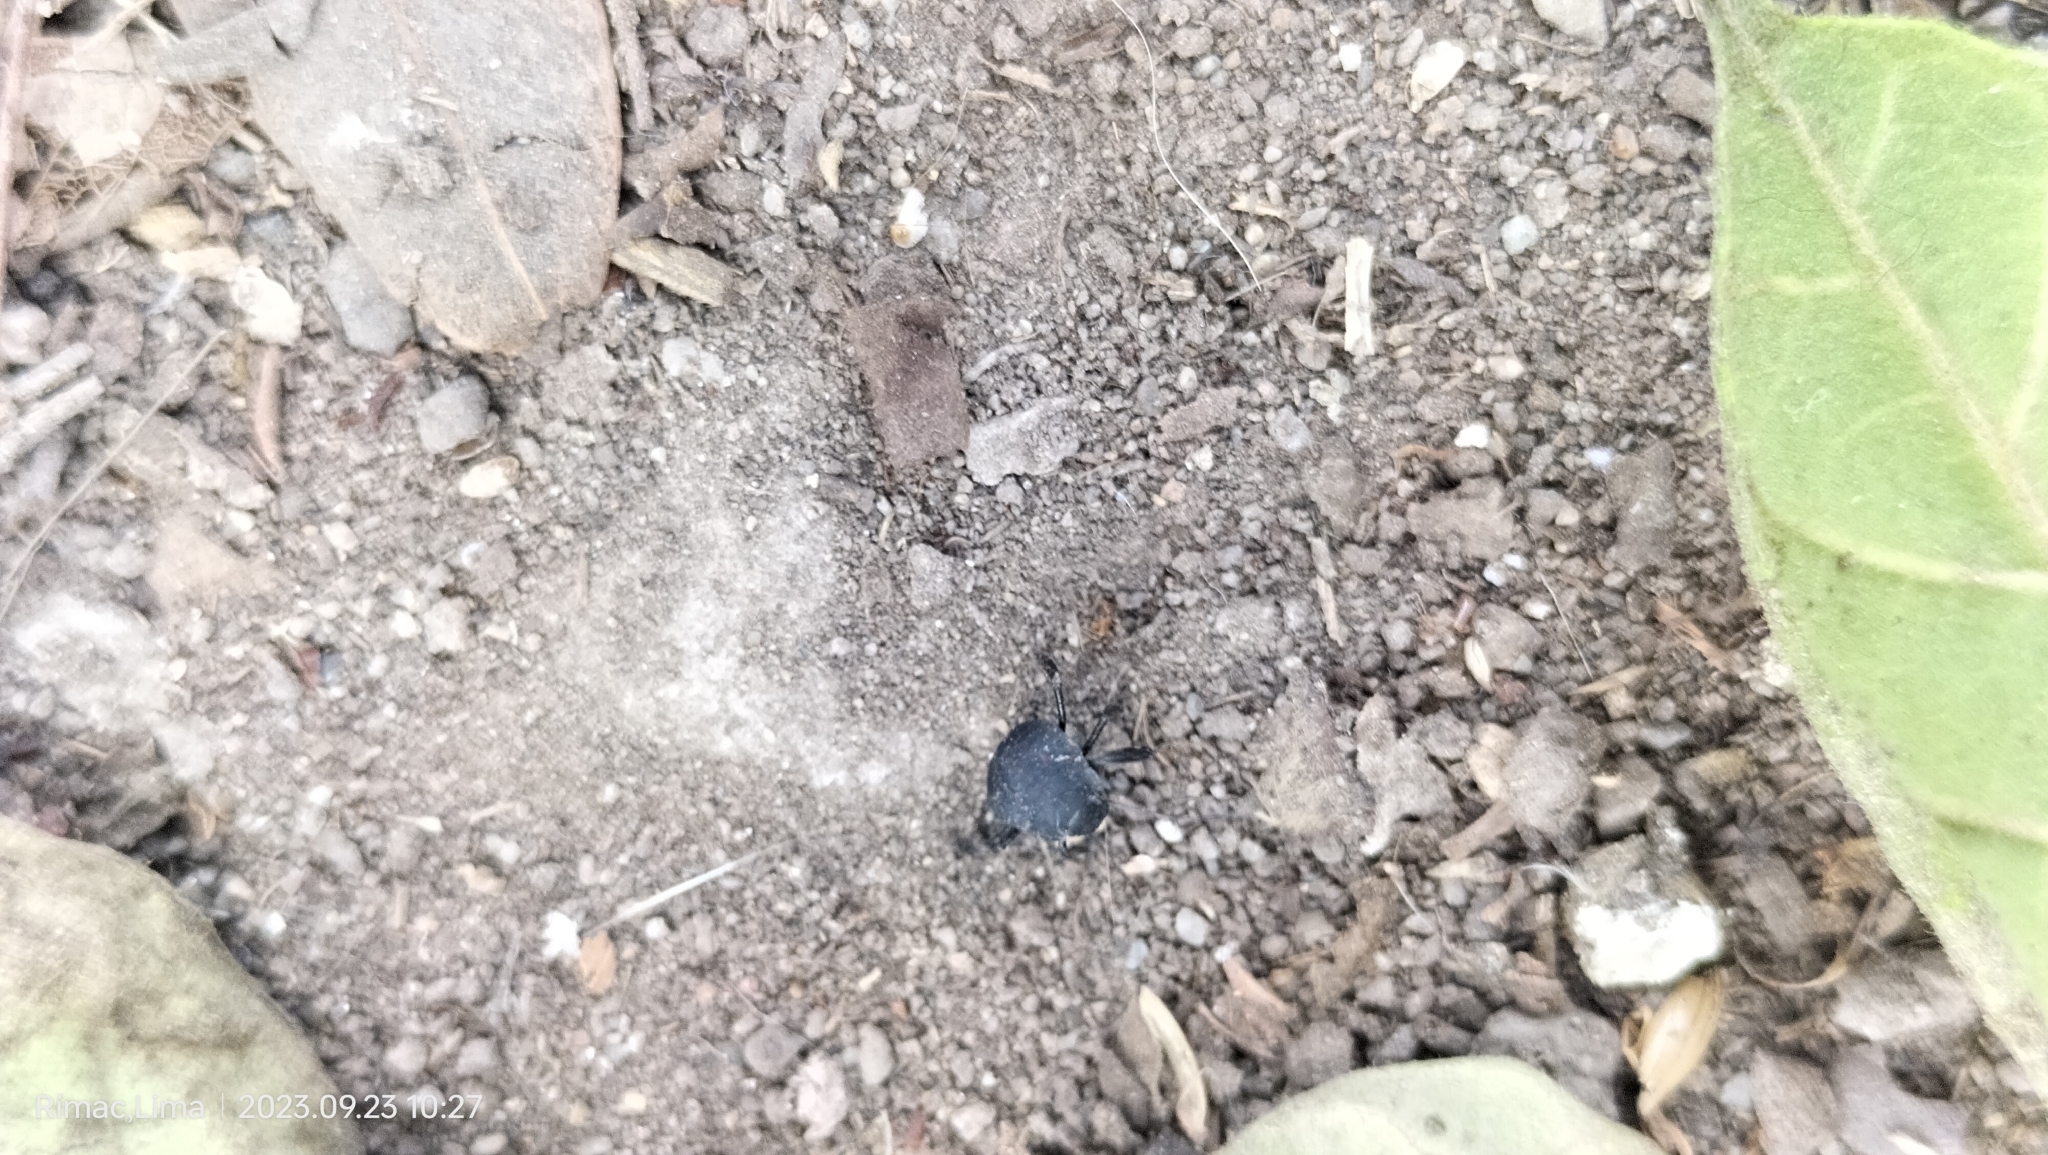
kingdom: Animalia
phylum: Arthropoda
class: Insecta
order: Hemiptera
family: Pentatomidae
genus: Pellaea
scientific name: Pellaea stictica
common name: Stink bug
